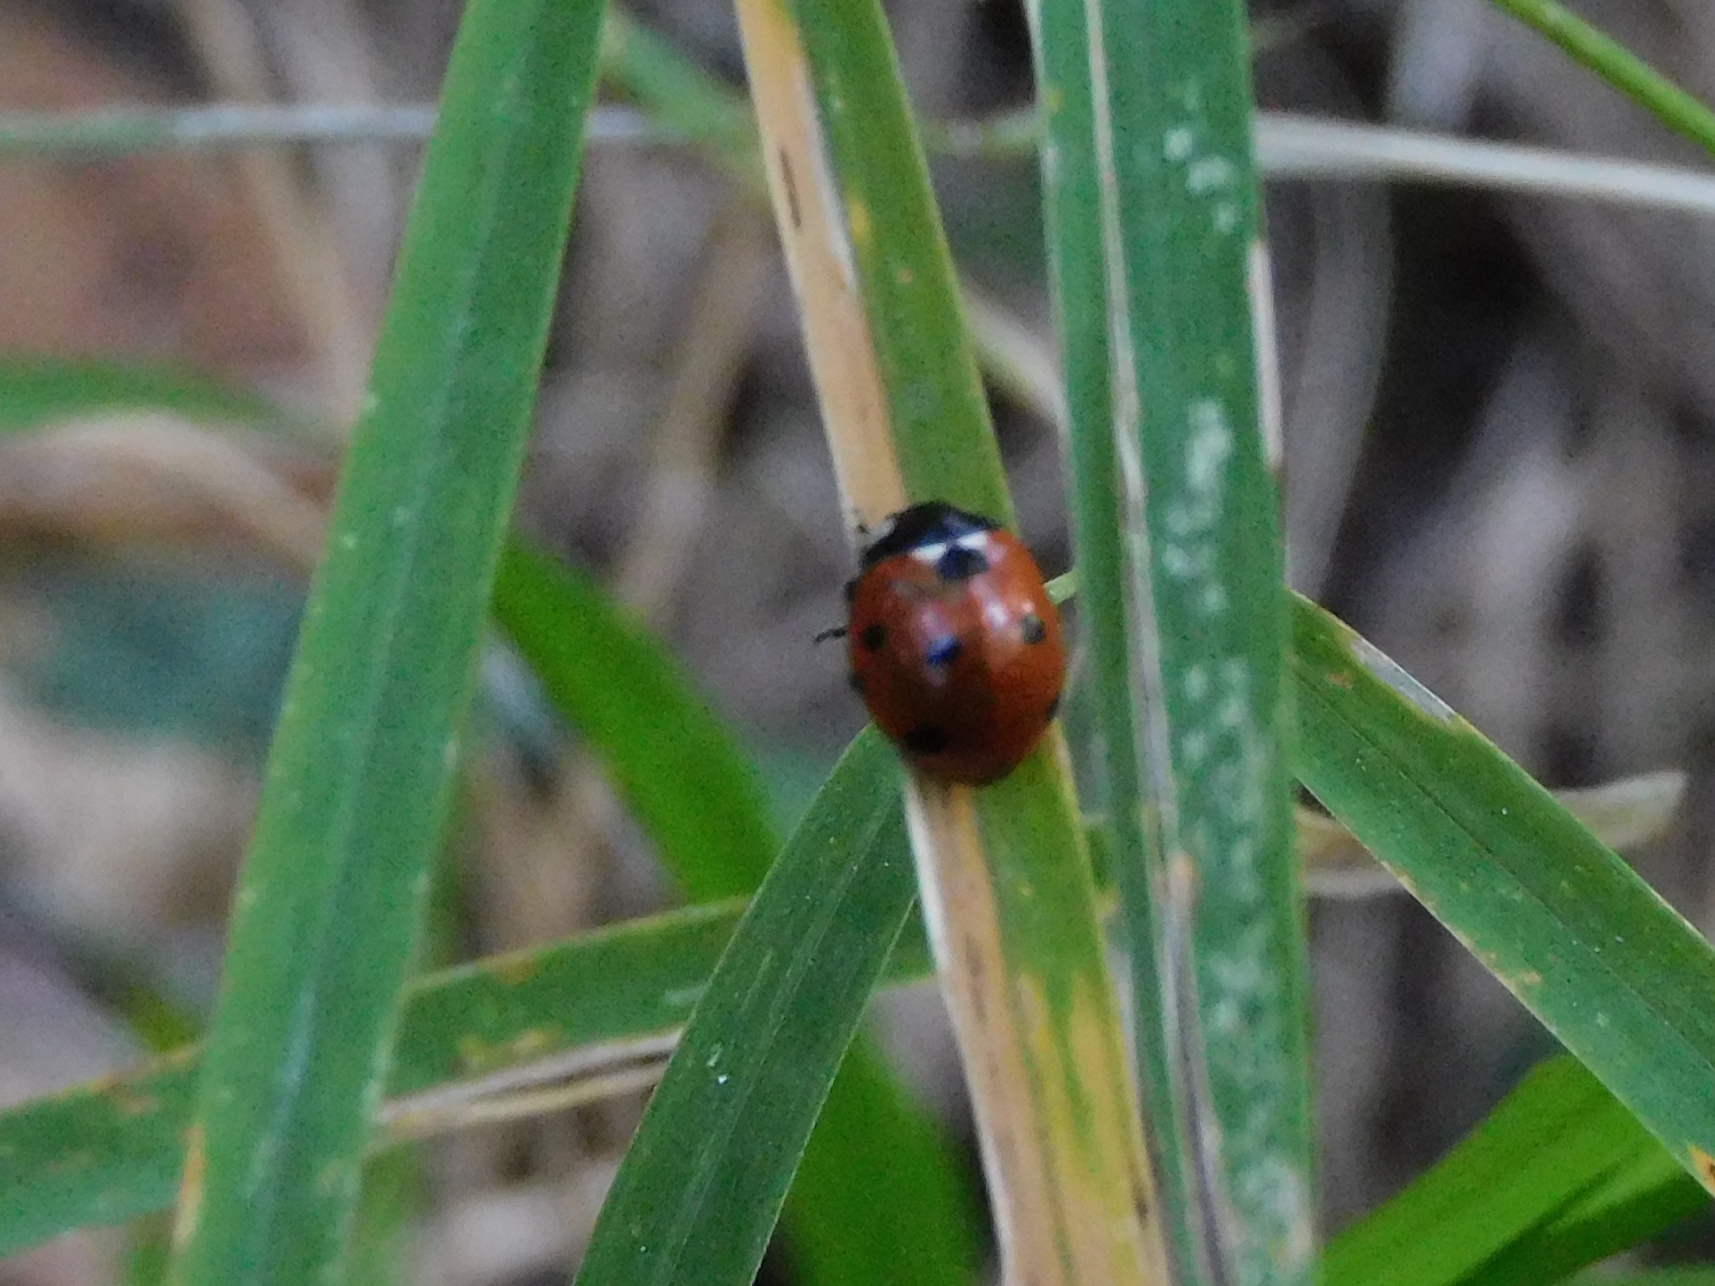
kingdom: Animalia
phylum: Arthropoda
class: Insecta
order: Coleoptera
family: Coccinellidae
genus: Coccinella
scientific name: Coccinella septempunctata
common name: Sevenspotted lady beetle
